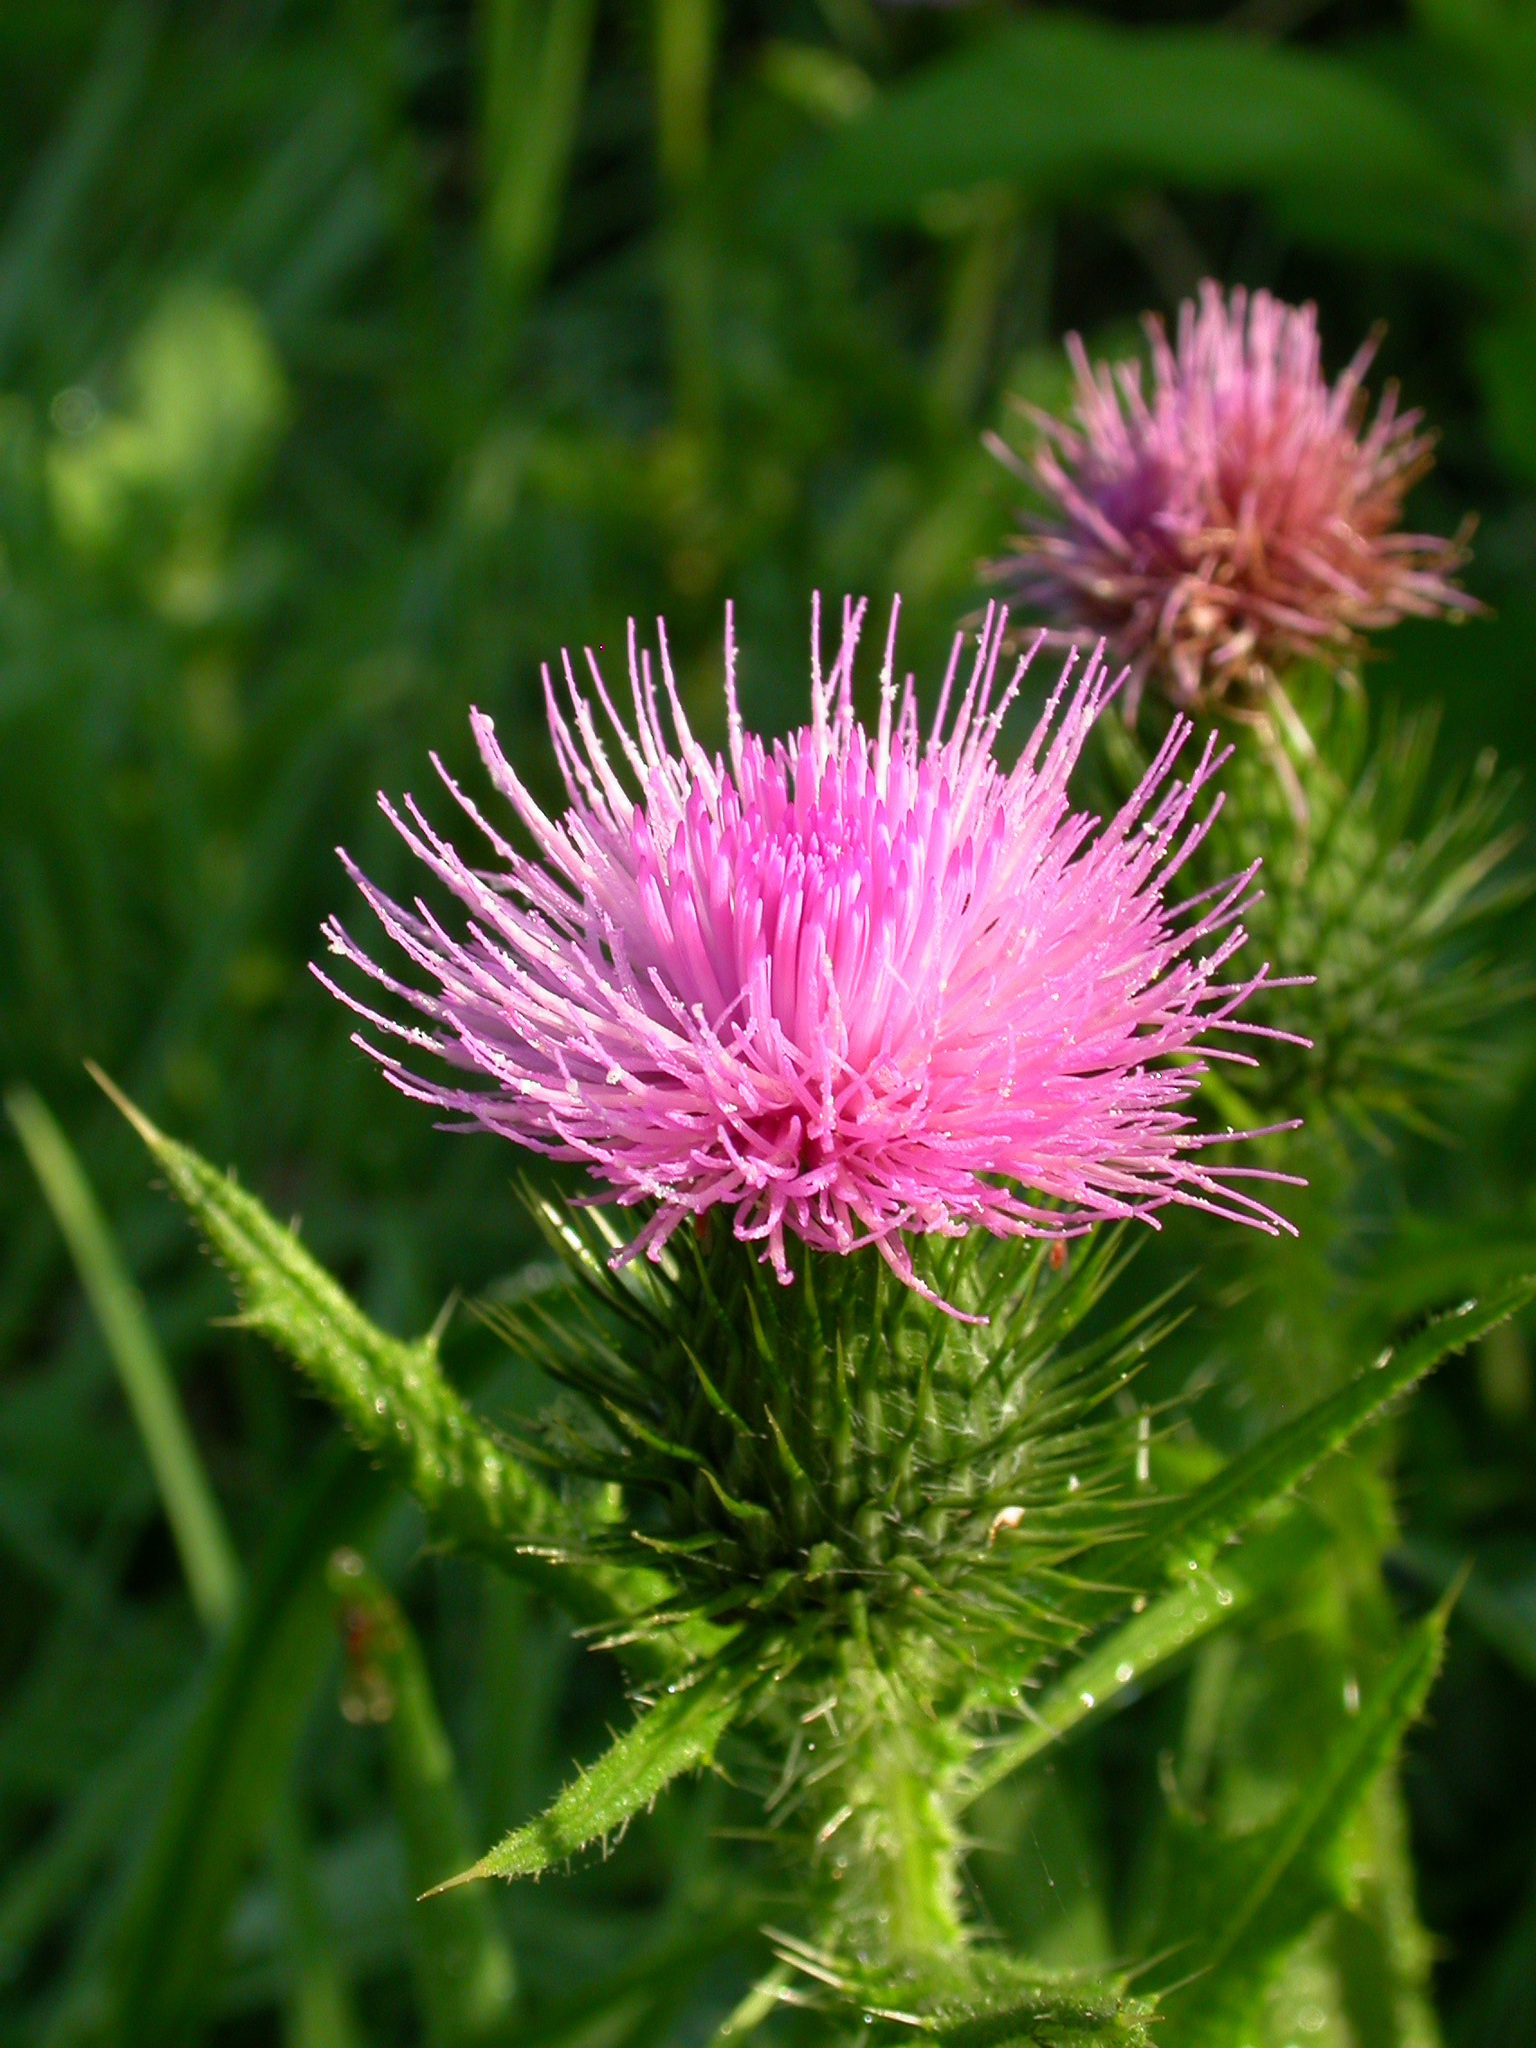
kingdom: Plantae
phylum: Tracheophyta
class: Magnoliopsida
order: Asterales
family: Asteraceae
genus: Cirsium
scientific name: Cirsium vulgare
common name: Bull thistle
